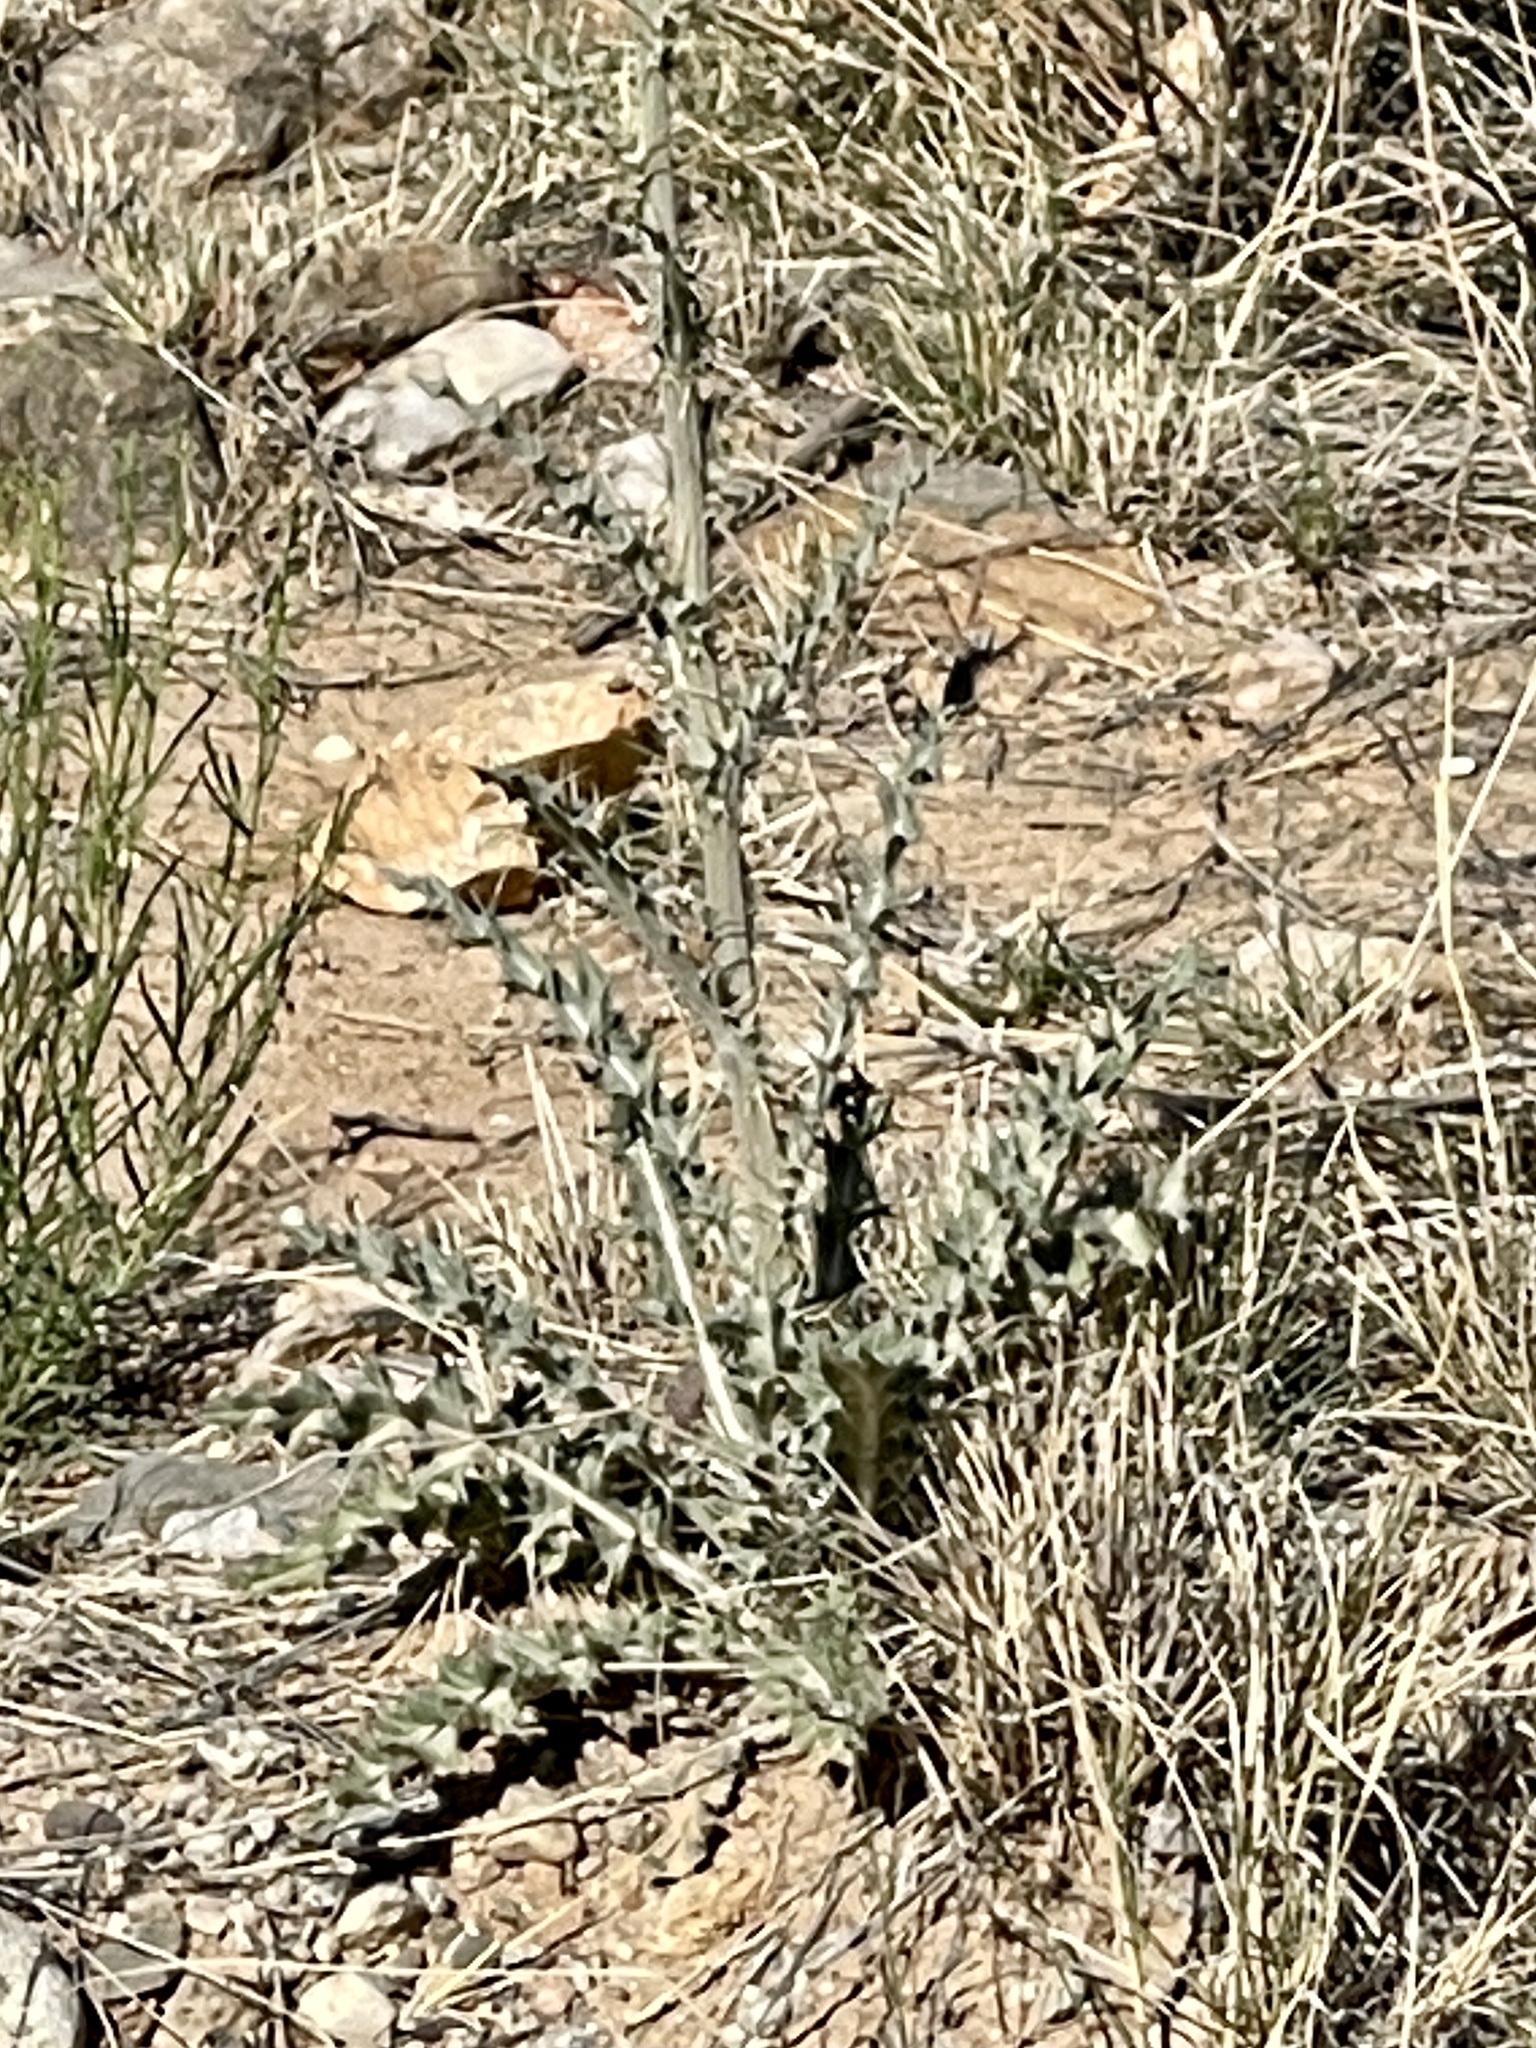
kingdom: Plantae
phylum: Tracheophyta
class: Magnoliopsida
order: Asterales
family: Asteraceae
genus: Cirsium
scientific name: Cirsium neomexicanum
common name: New mexico thistle
